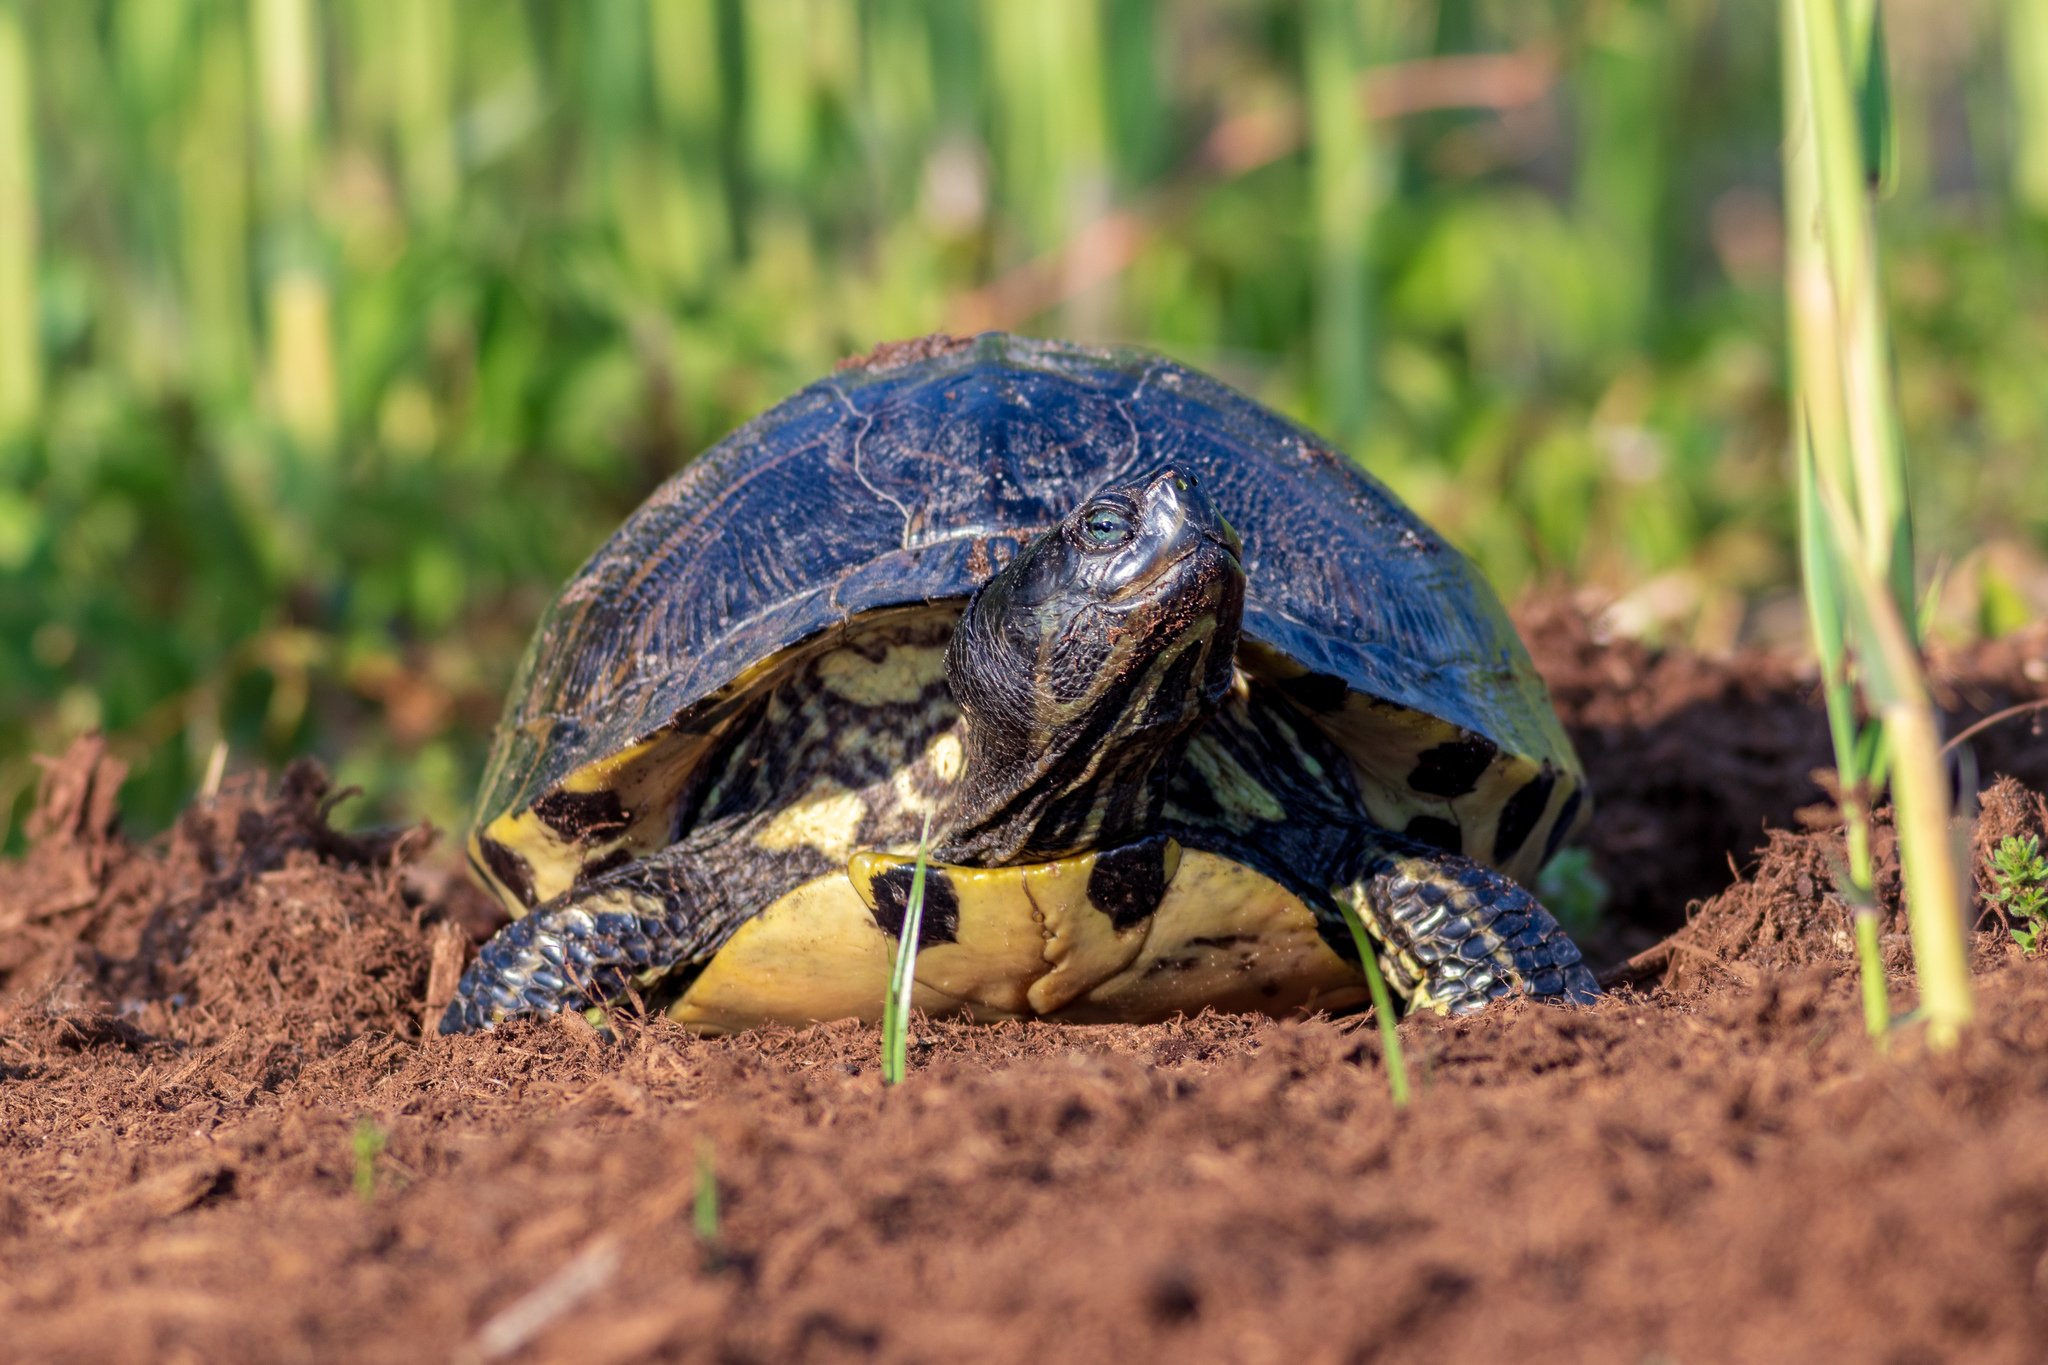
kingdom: Animalia
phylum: Chordata
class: Testudines
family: Emydidae
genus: Trachemys
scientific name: Trachemys scripta
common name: Slider
